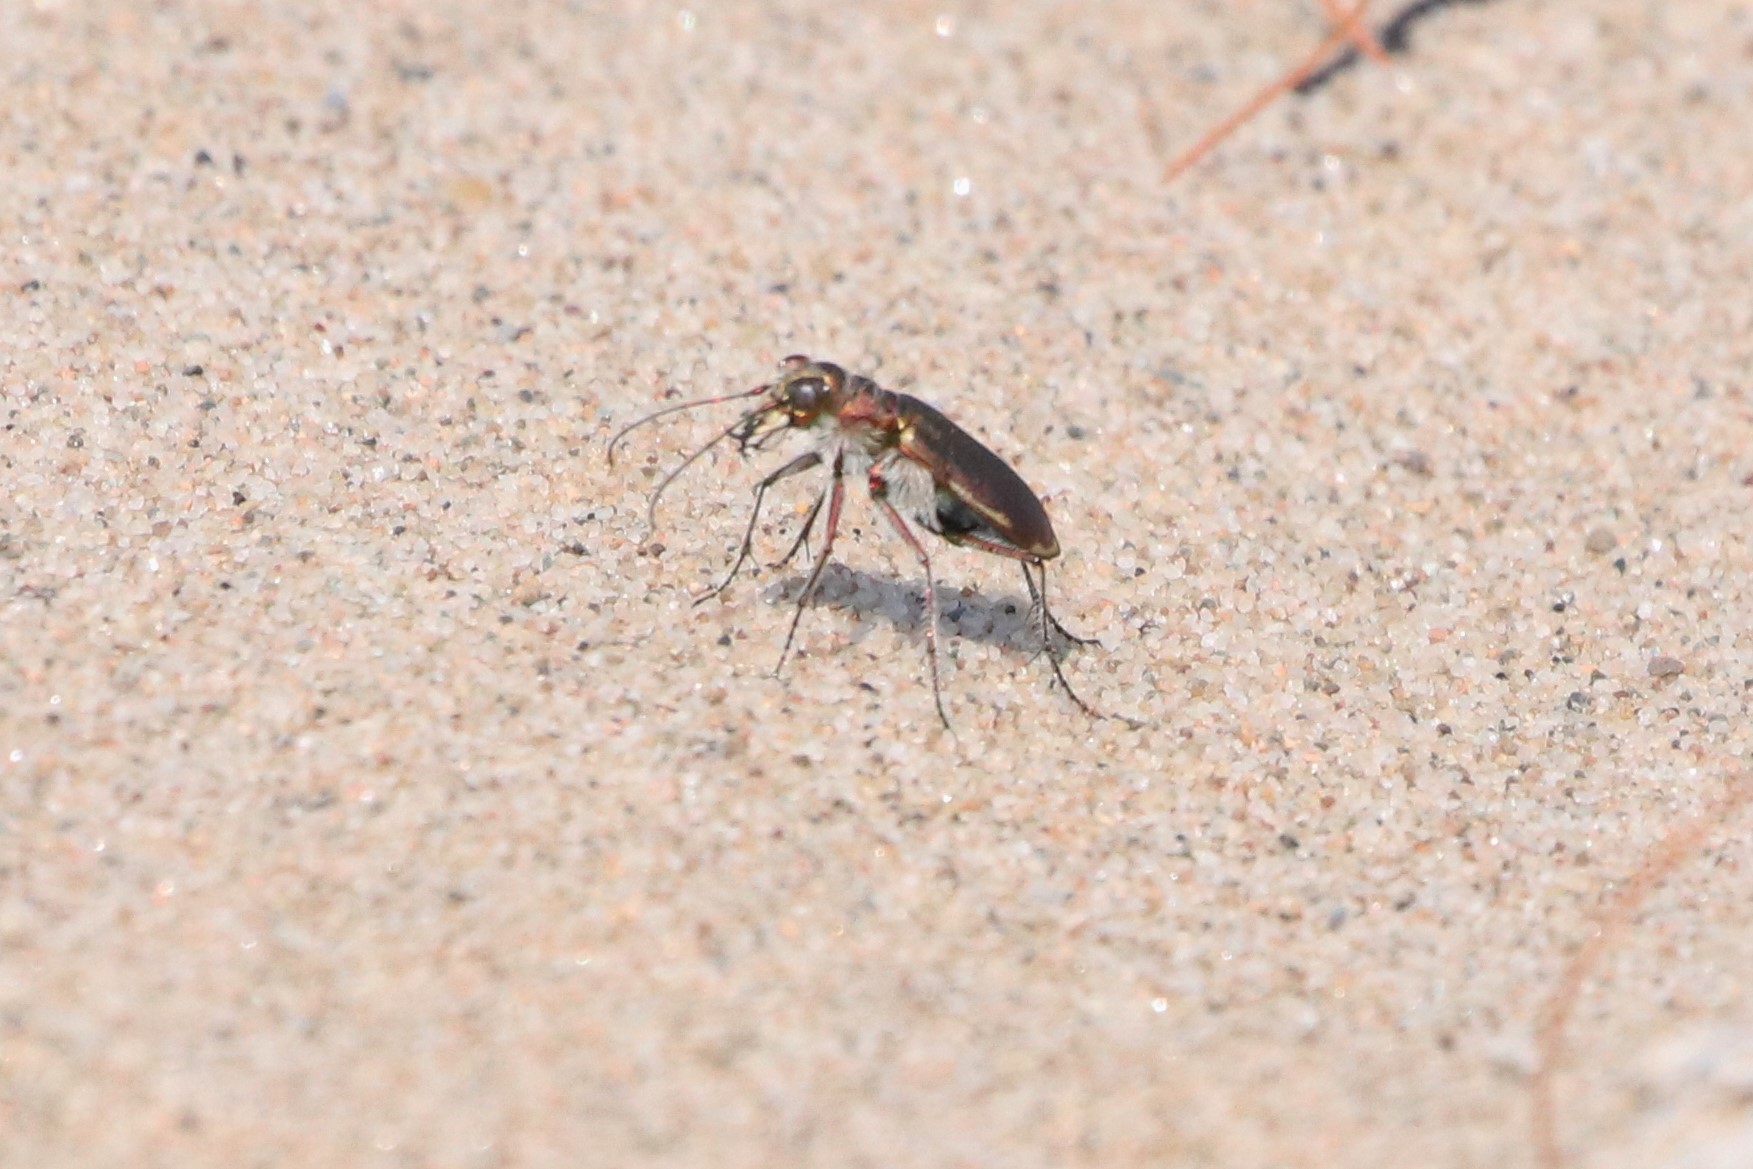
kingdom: Animalia
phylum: Arthropoda
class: Insecta
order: Coleoptera
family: Carabidae
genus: Cicindela
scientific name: Cicindela hirticollis
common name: Hairy-necked tiger beetle
